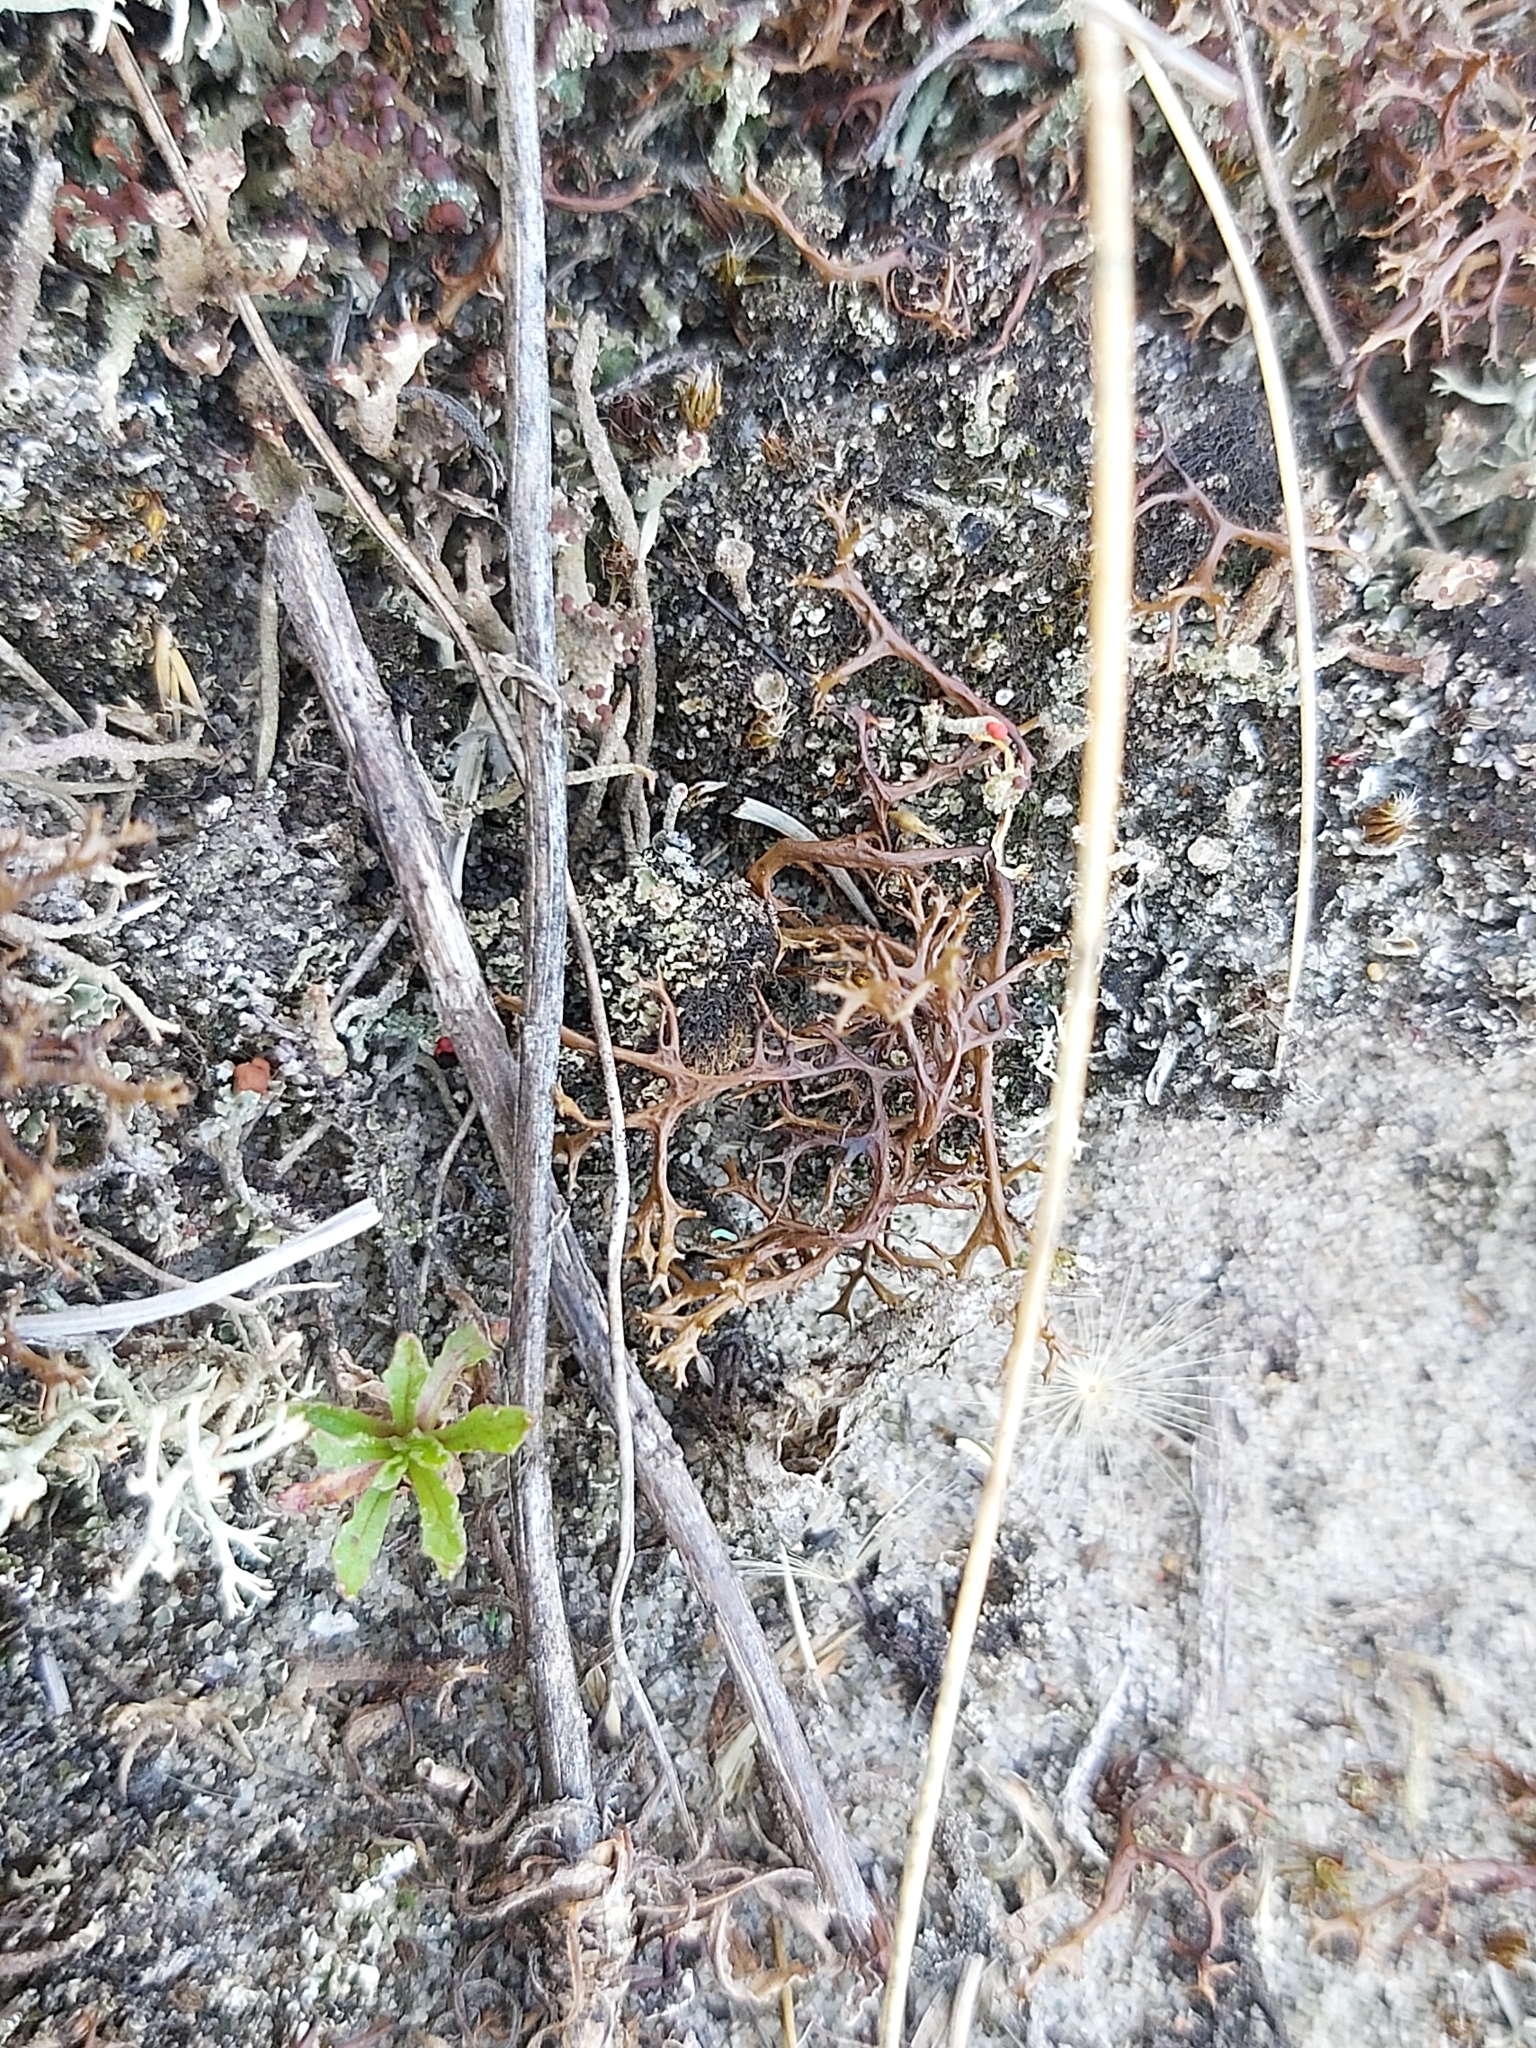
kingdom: Fungi
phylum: Ascomycota
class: Lecanoromycetes
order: Lecanorales
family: Parmeliaceae
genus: Cetraria
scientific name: Cetraria aculeata
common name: Spiny heath lichen
